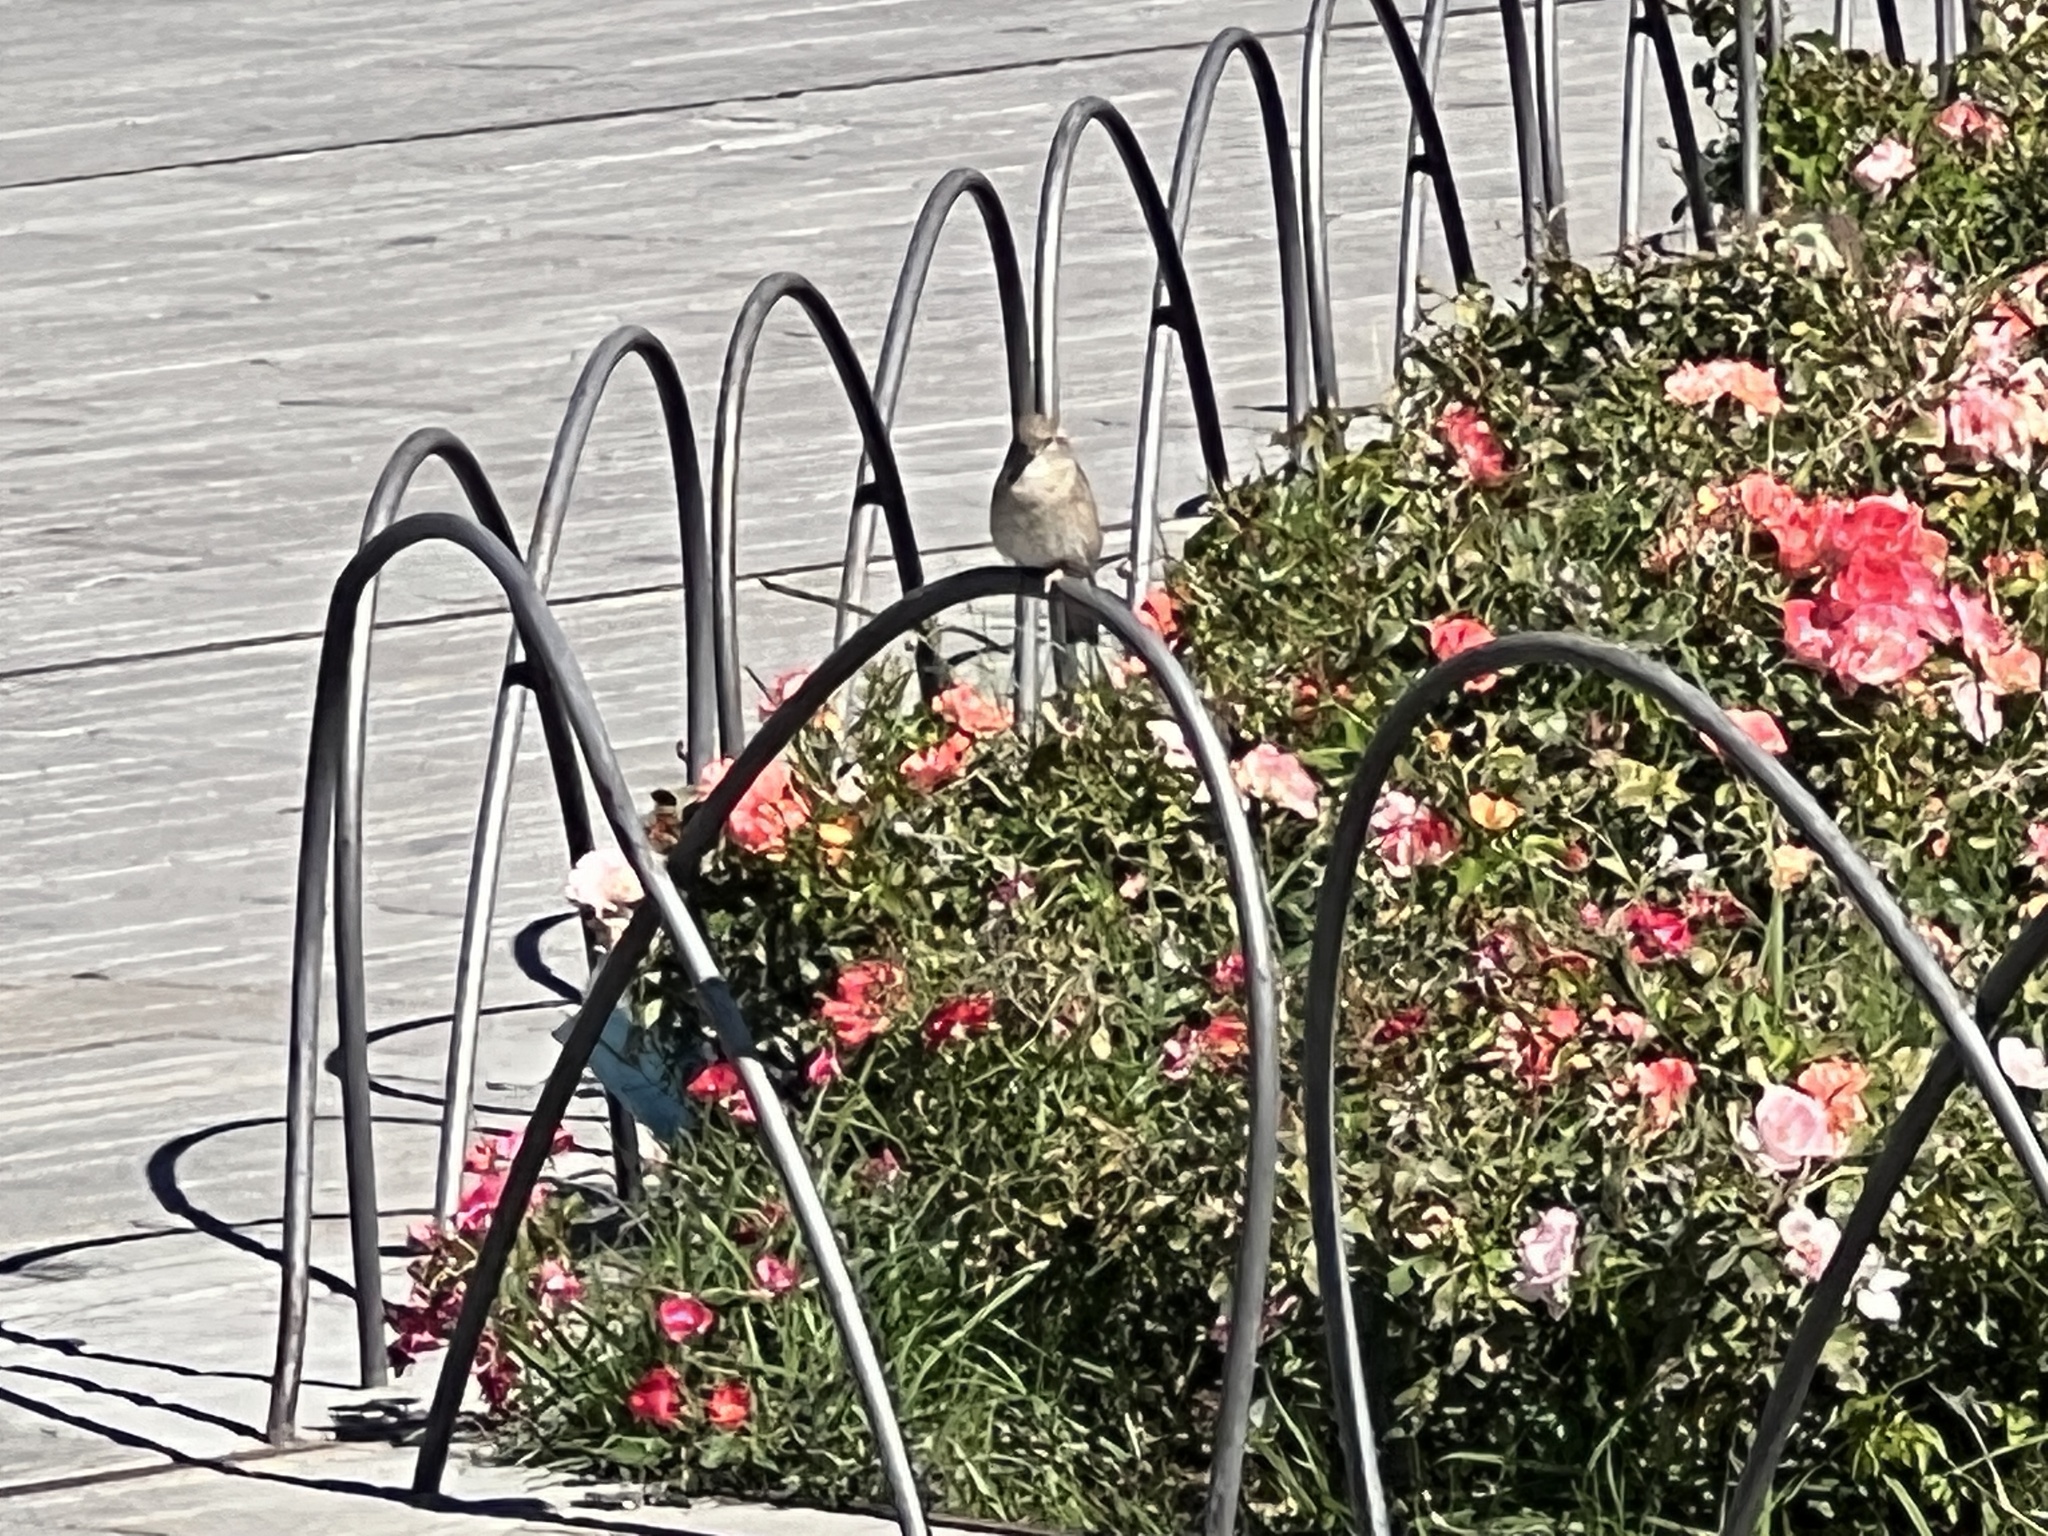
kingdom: Animalia
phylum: Chordata
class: Aves
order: Passeriformes
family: Passeridae
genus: Passer
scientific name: Passer italiae
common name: Italian sparrow
